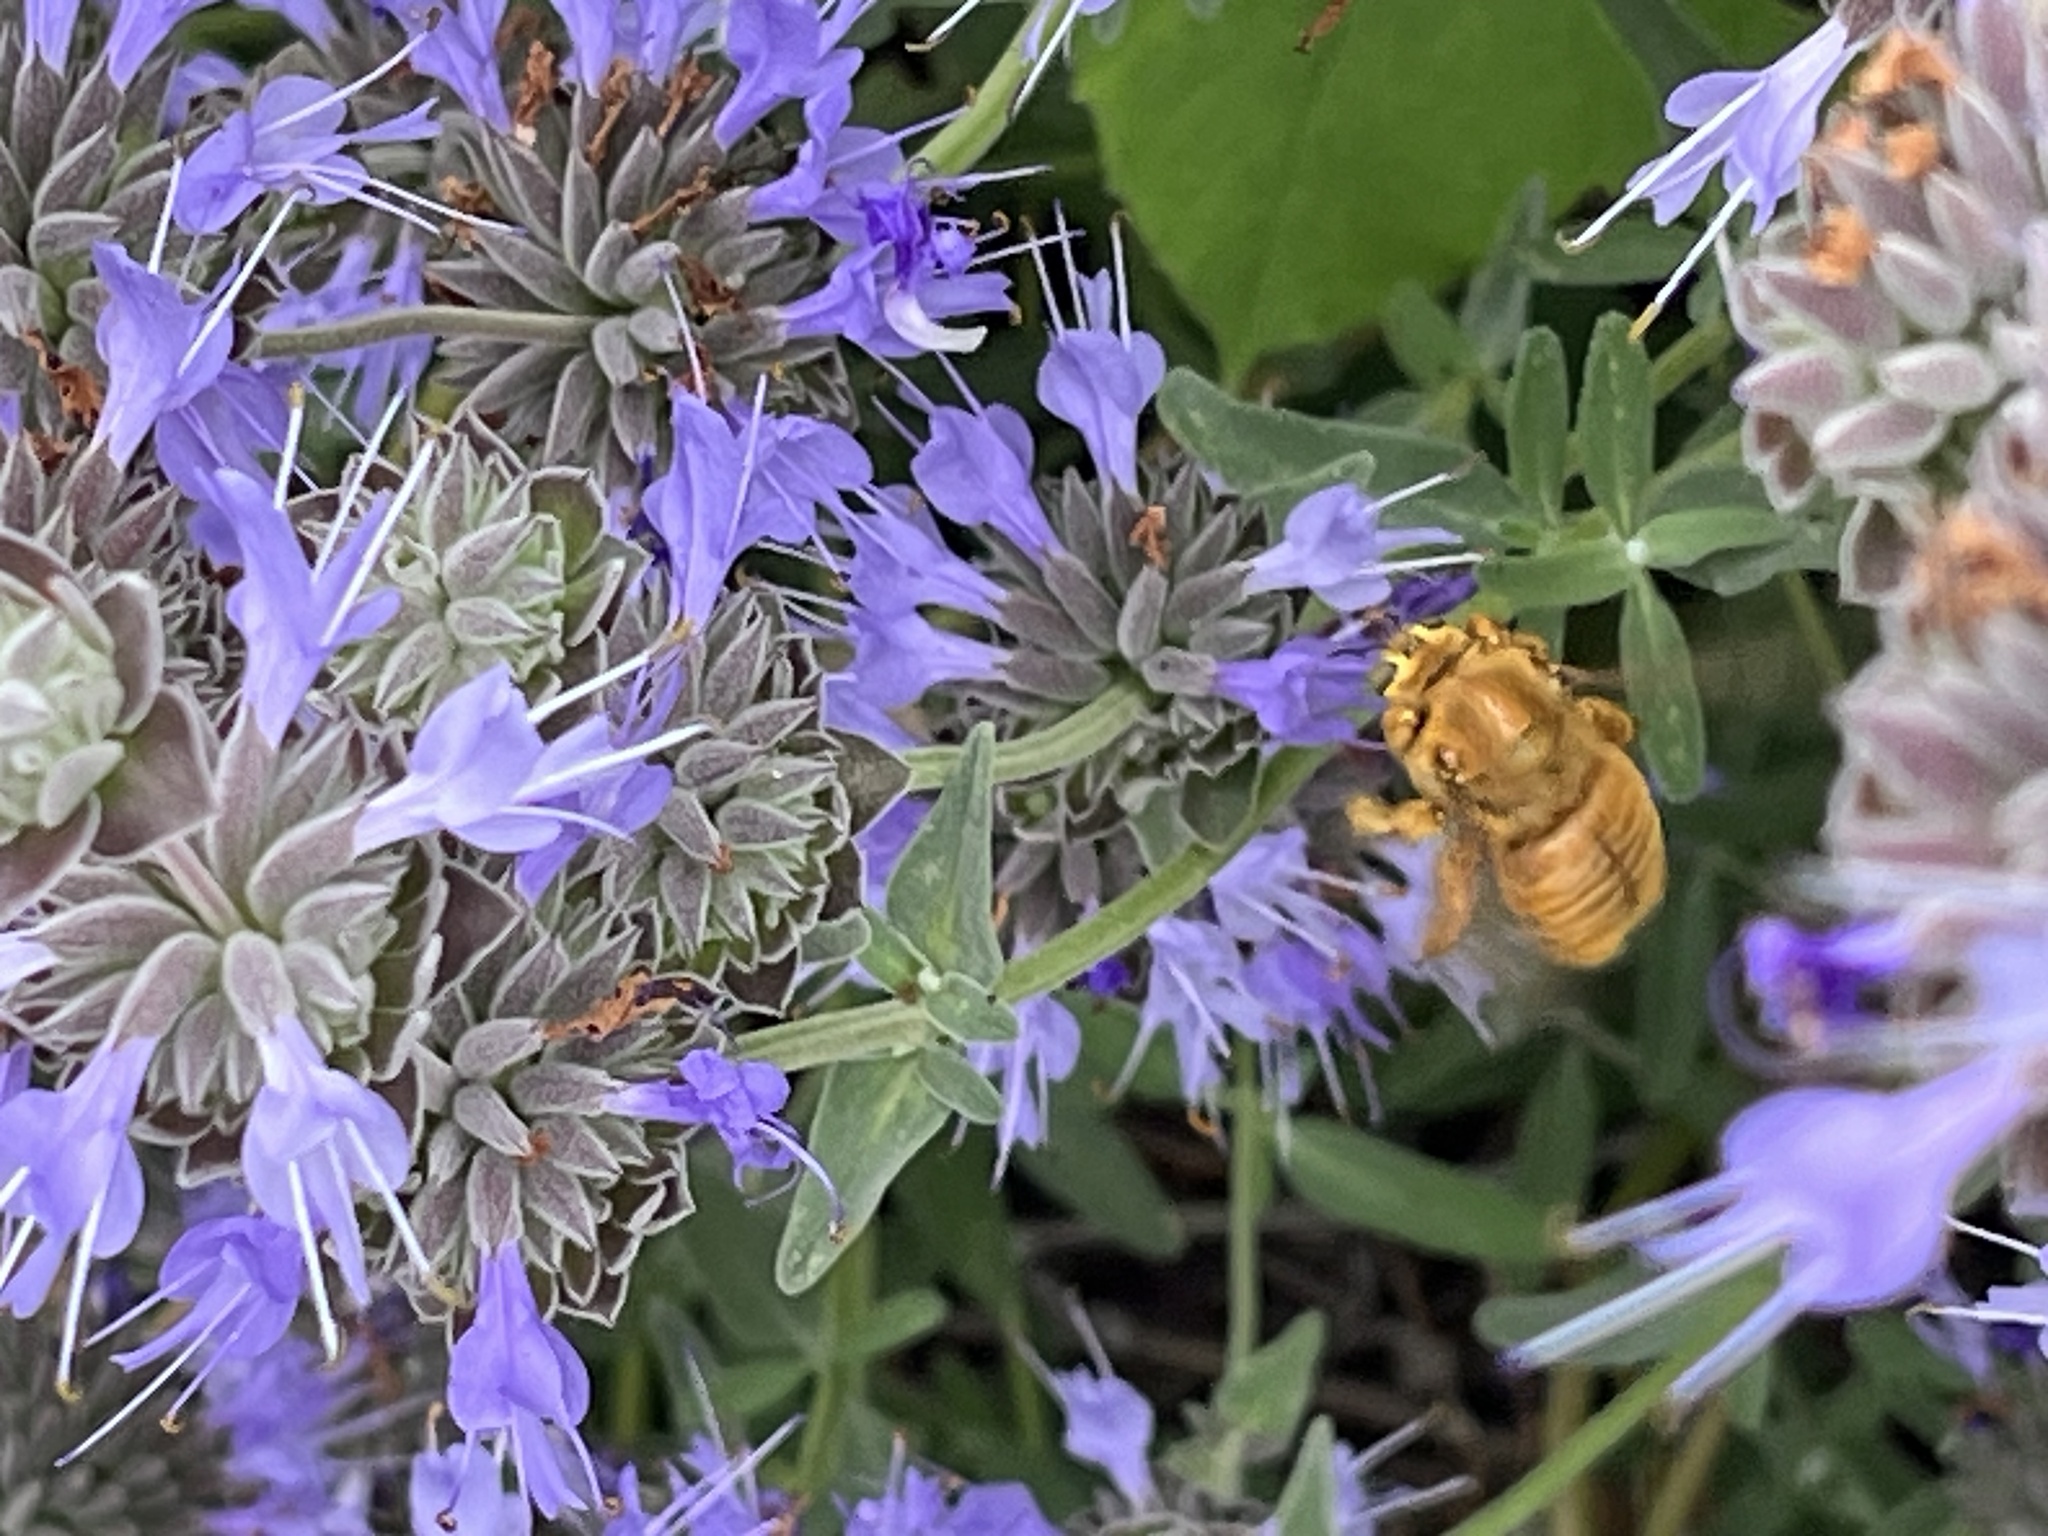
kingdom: Animalia
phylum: Arthropoda
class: Insecta
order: Hymenoptera
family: Apidae
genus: Xylocopa
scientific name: Xylocopa sonorina
